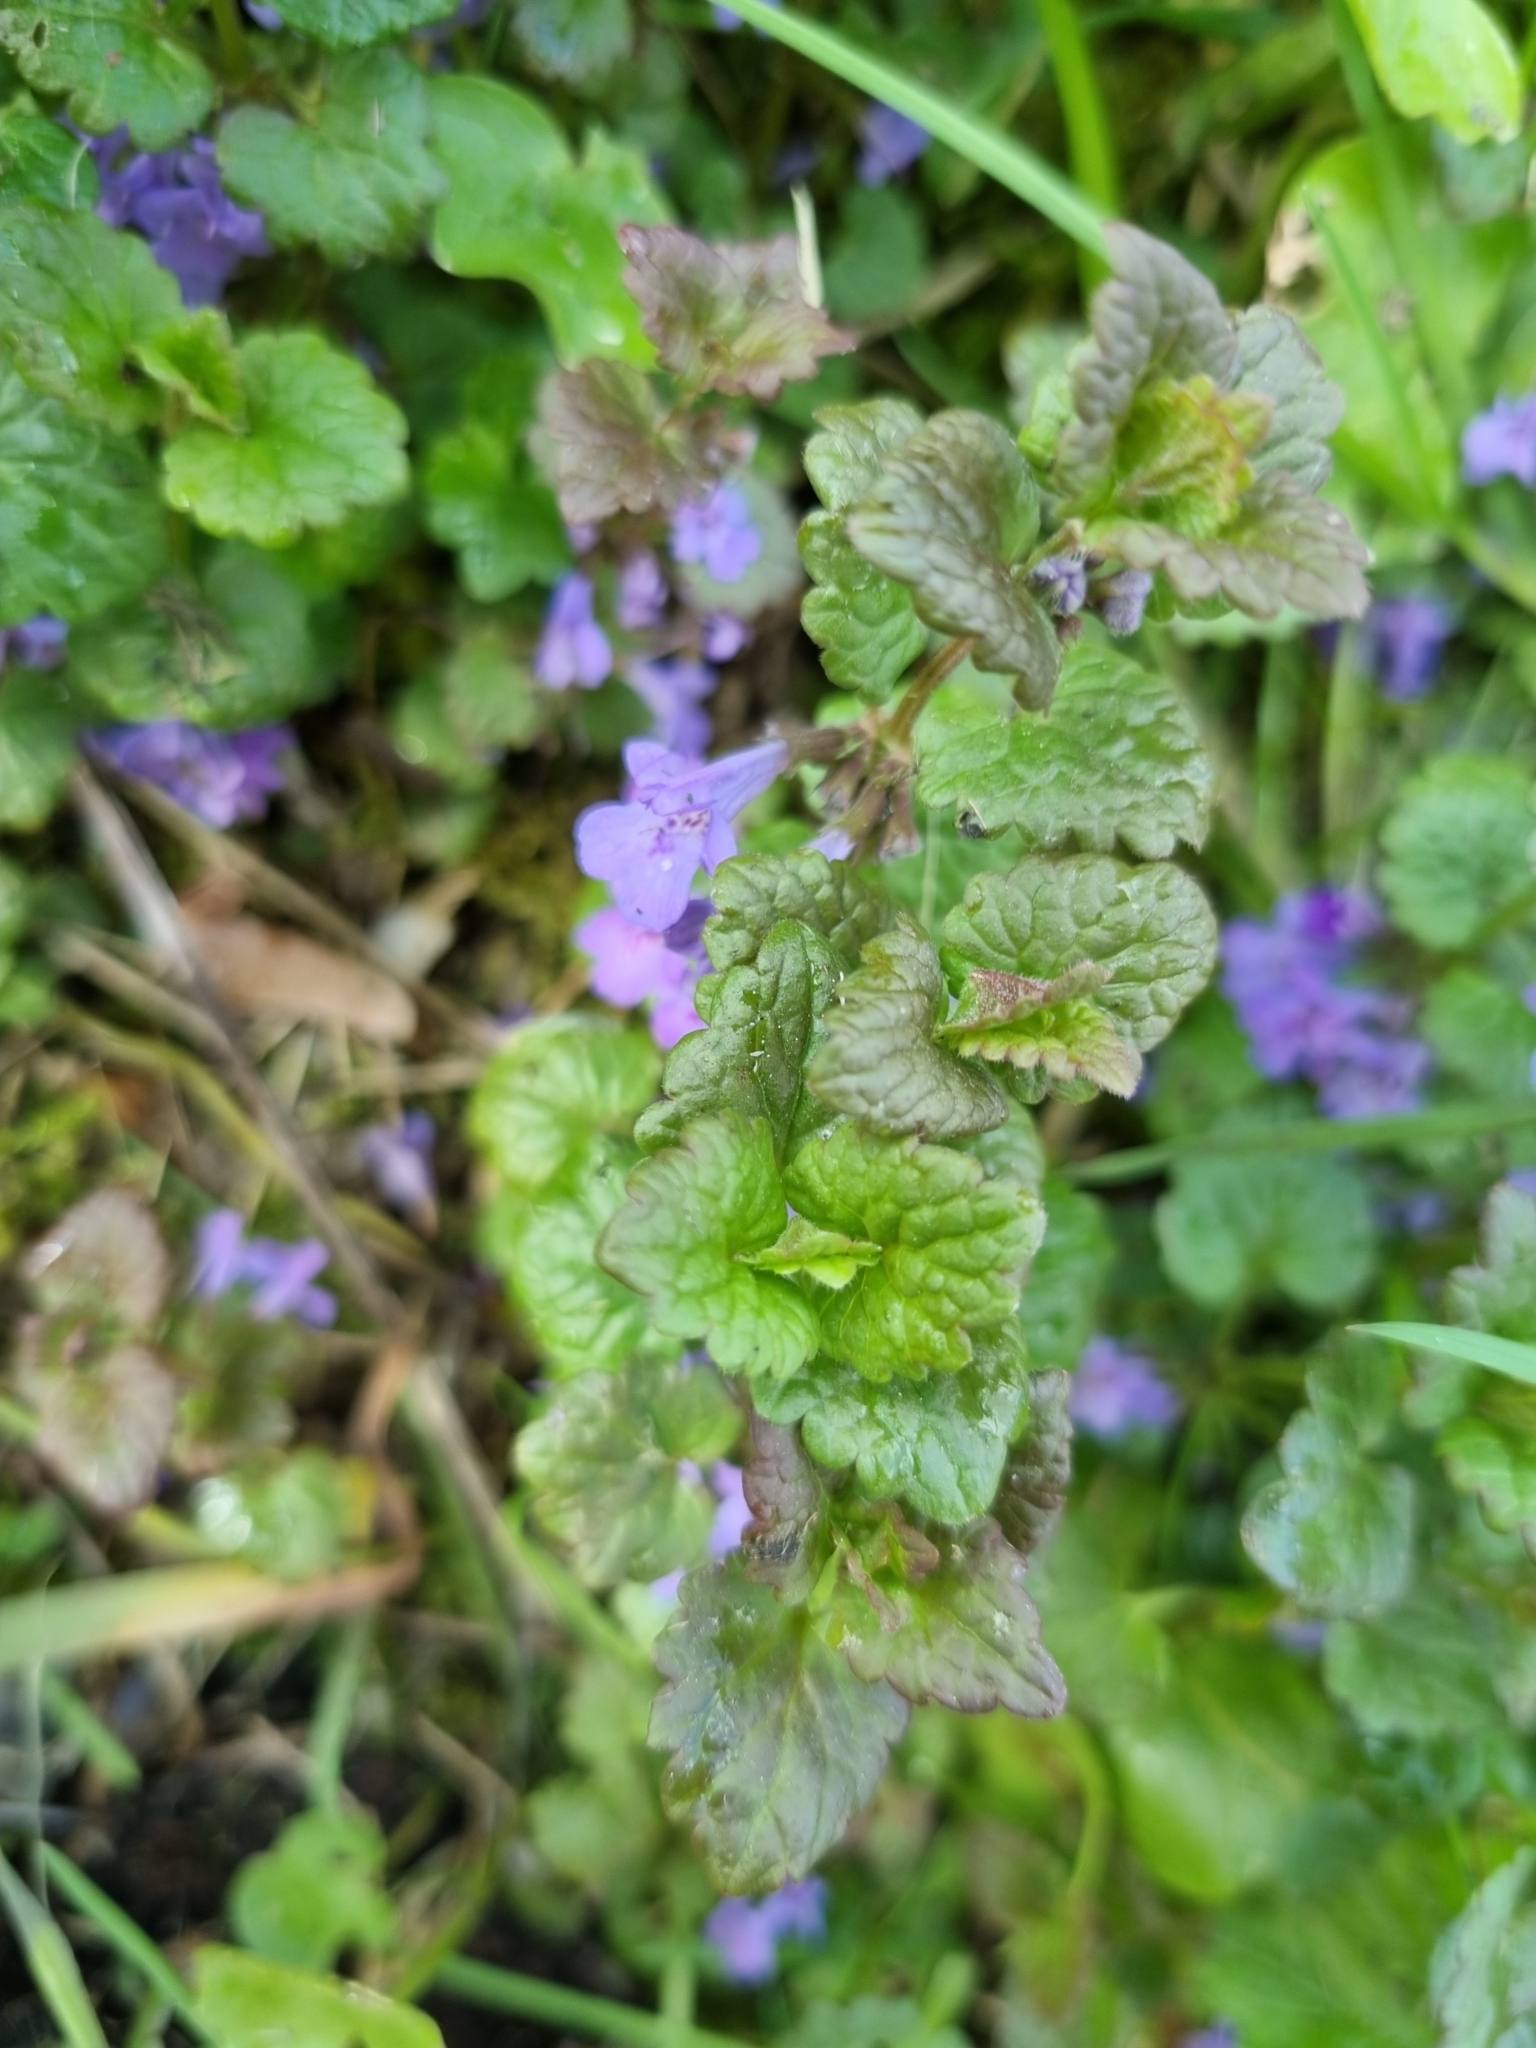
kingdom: Plantae
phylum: Tracheophyta
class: Magnoliopsida
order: Lamiales
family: Lamiaceae
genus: Glechoma
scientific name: Glechoma hederacea
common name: Ground ivy
